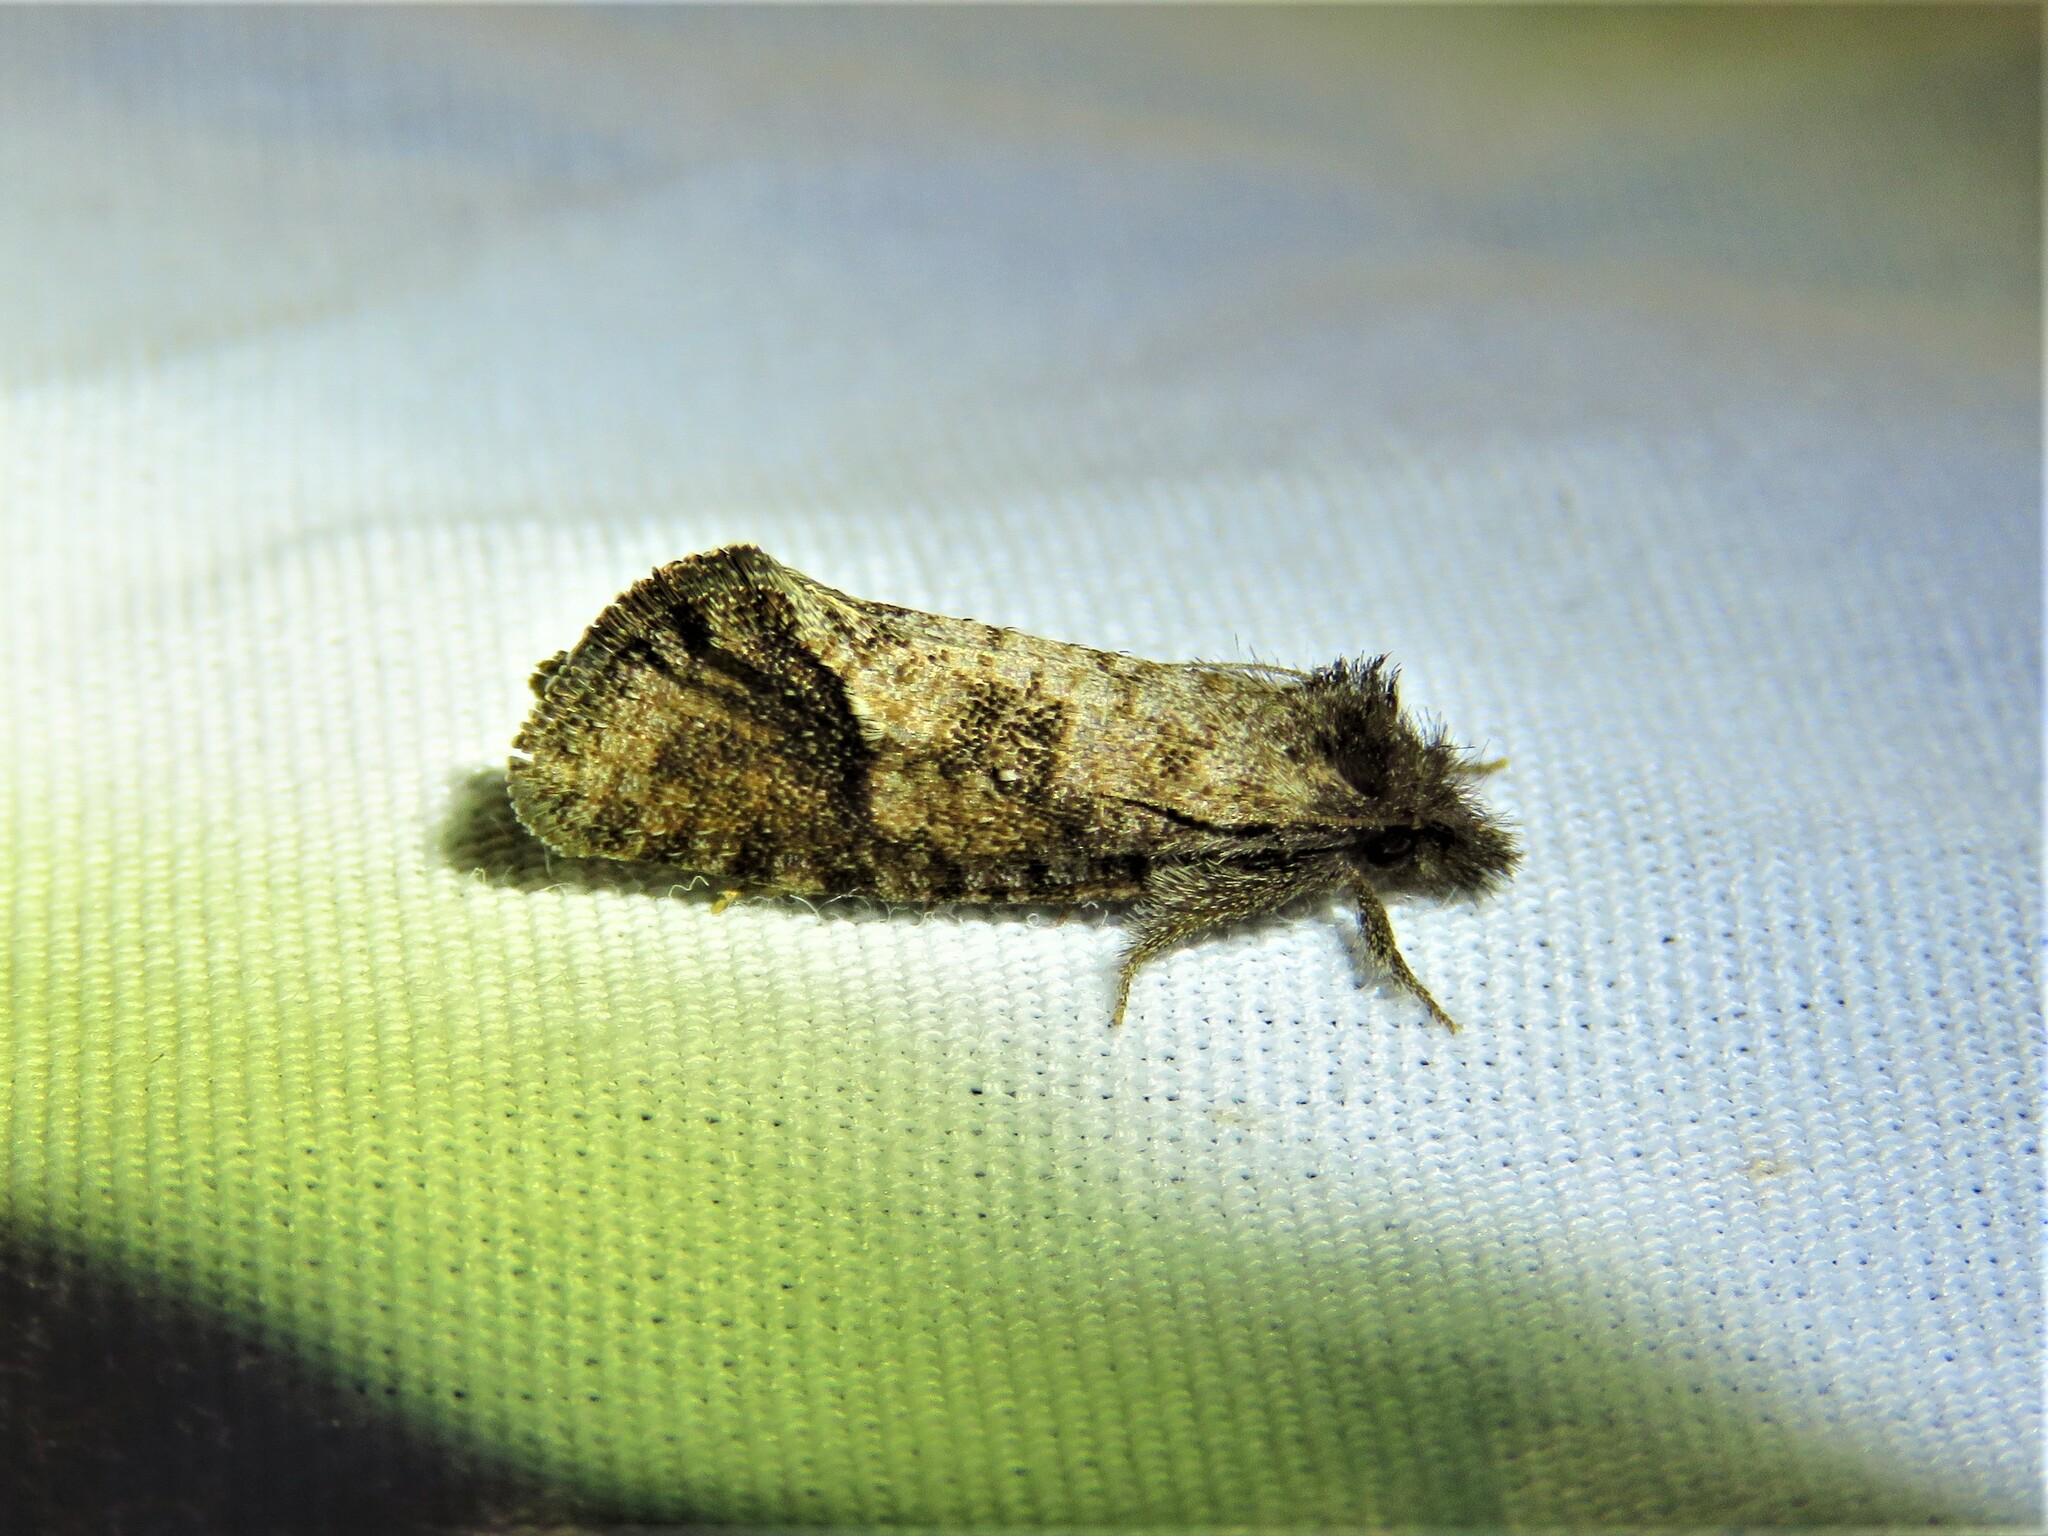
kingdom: Animalia
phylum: Arthropoda
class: Insecta
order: Lepidoptera
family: Tineidae
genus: Acrolophus
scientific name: Acrolophus texanella
